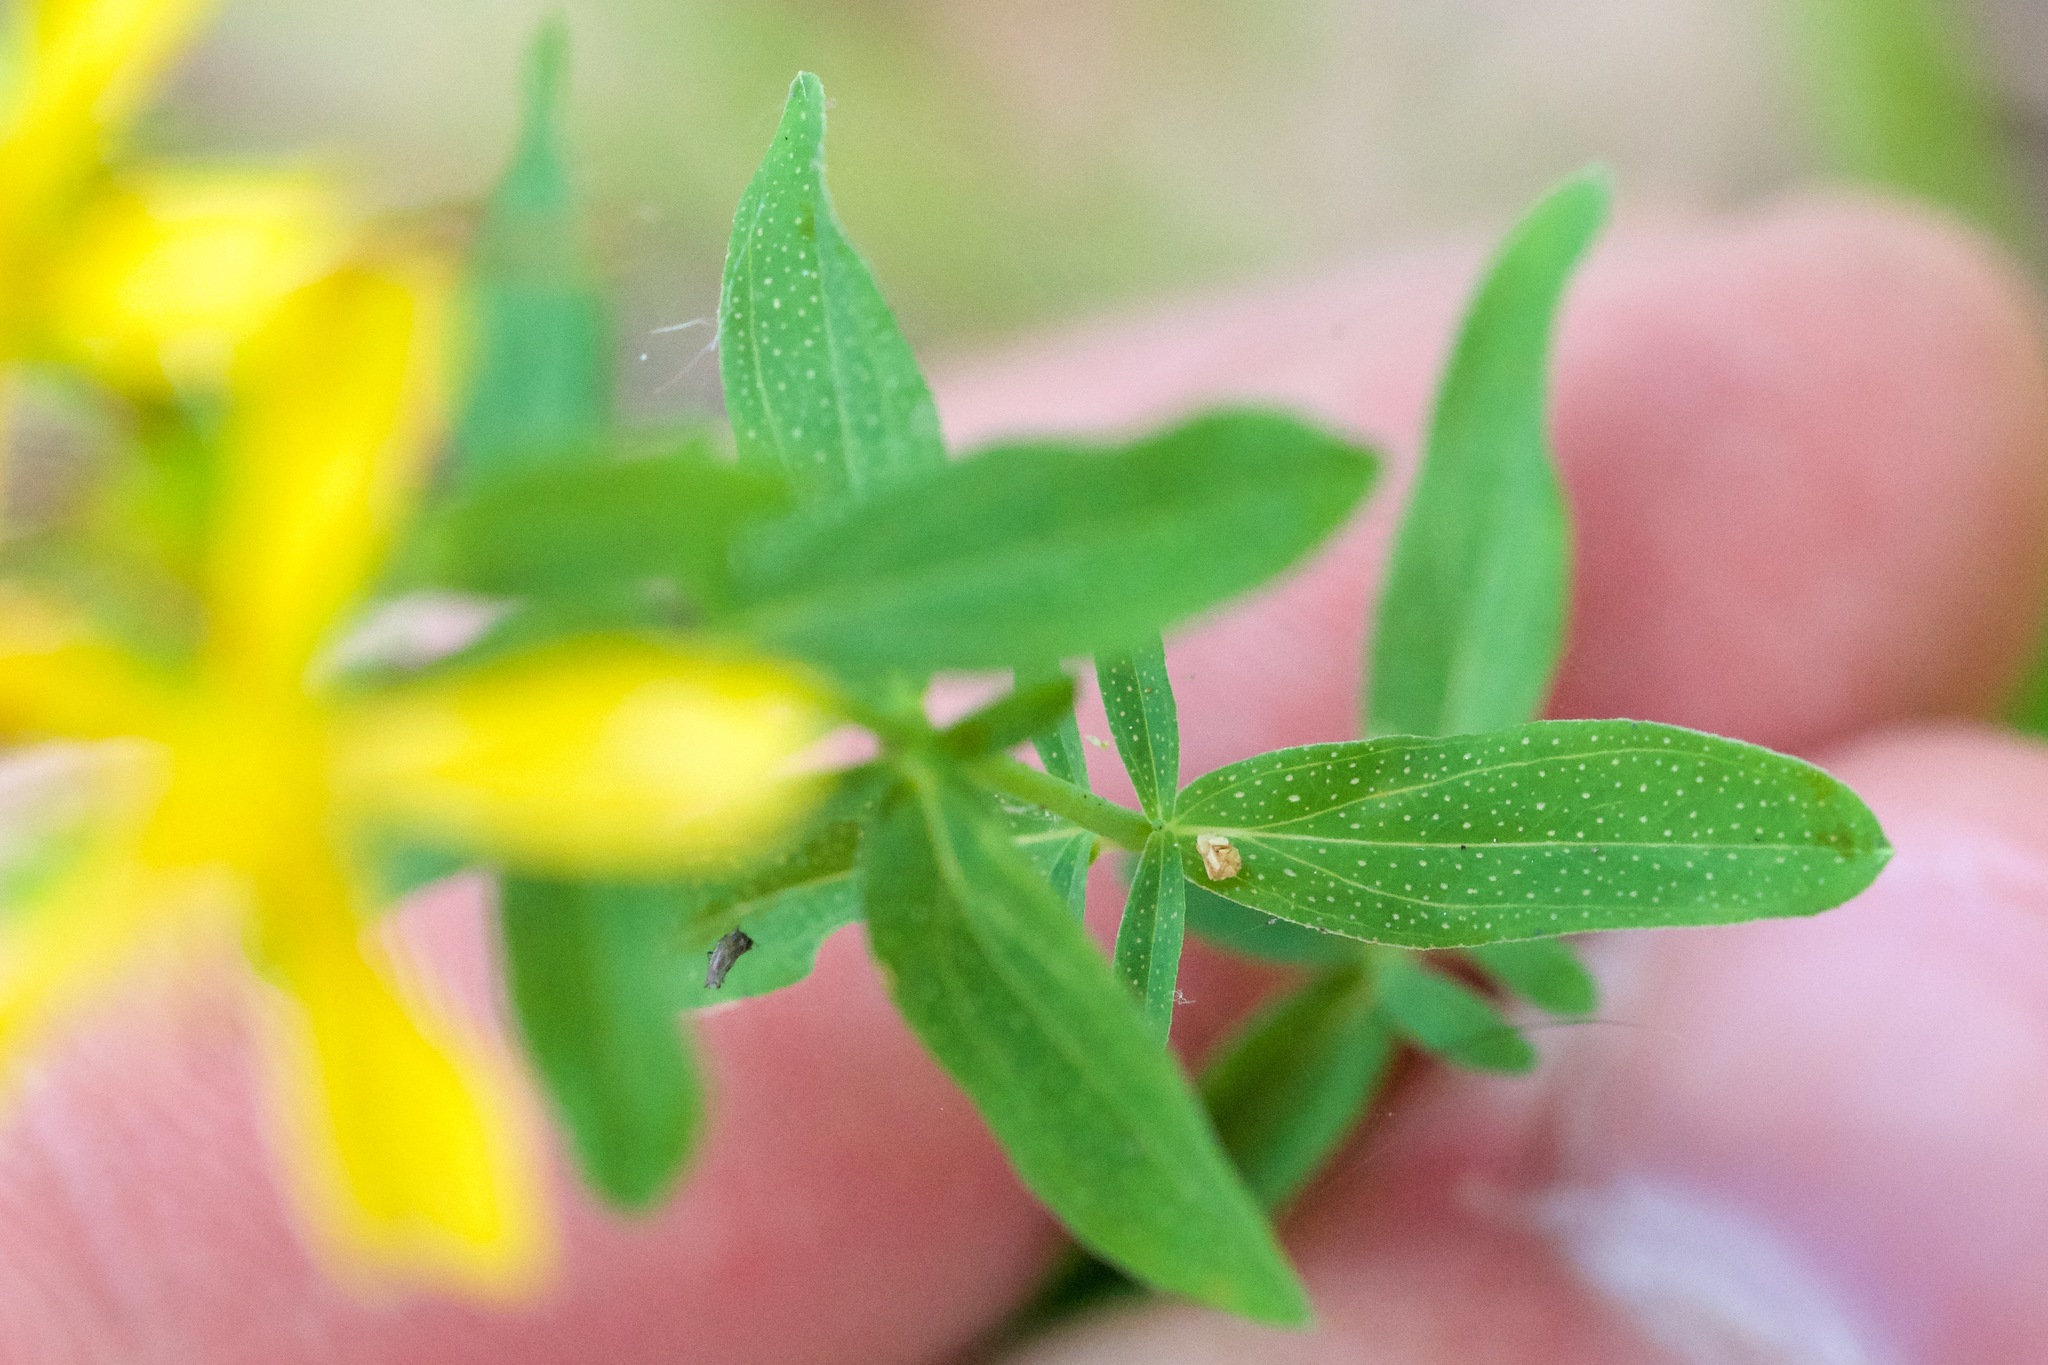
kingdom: Plantae
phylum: Tracheophyta
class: Magnoliopsida
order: Malpighiales
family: Hypericaceae
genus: Hypericum
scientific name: Hypericum perforatum
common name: Common st. johnswort
